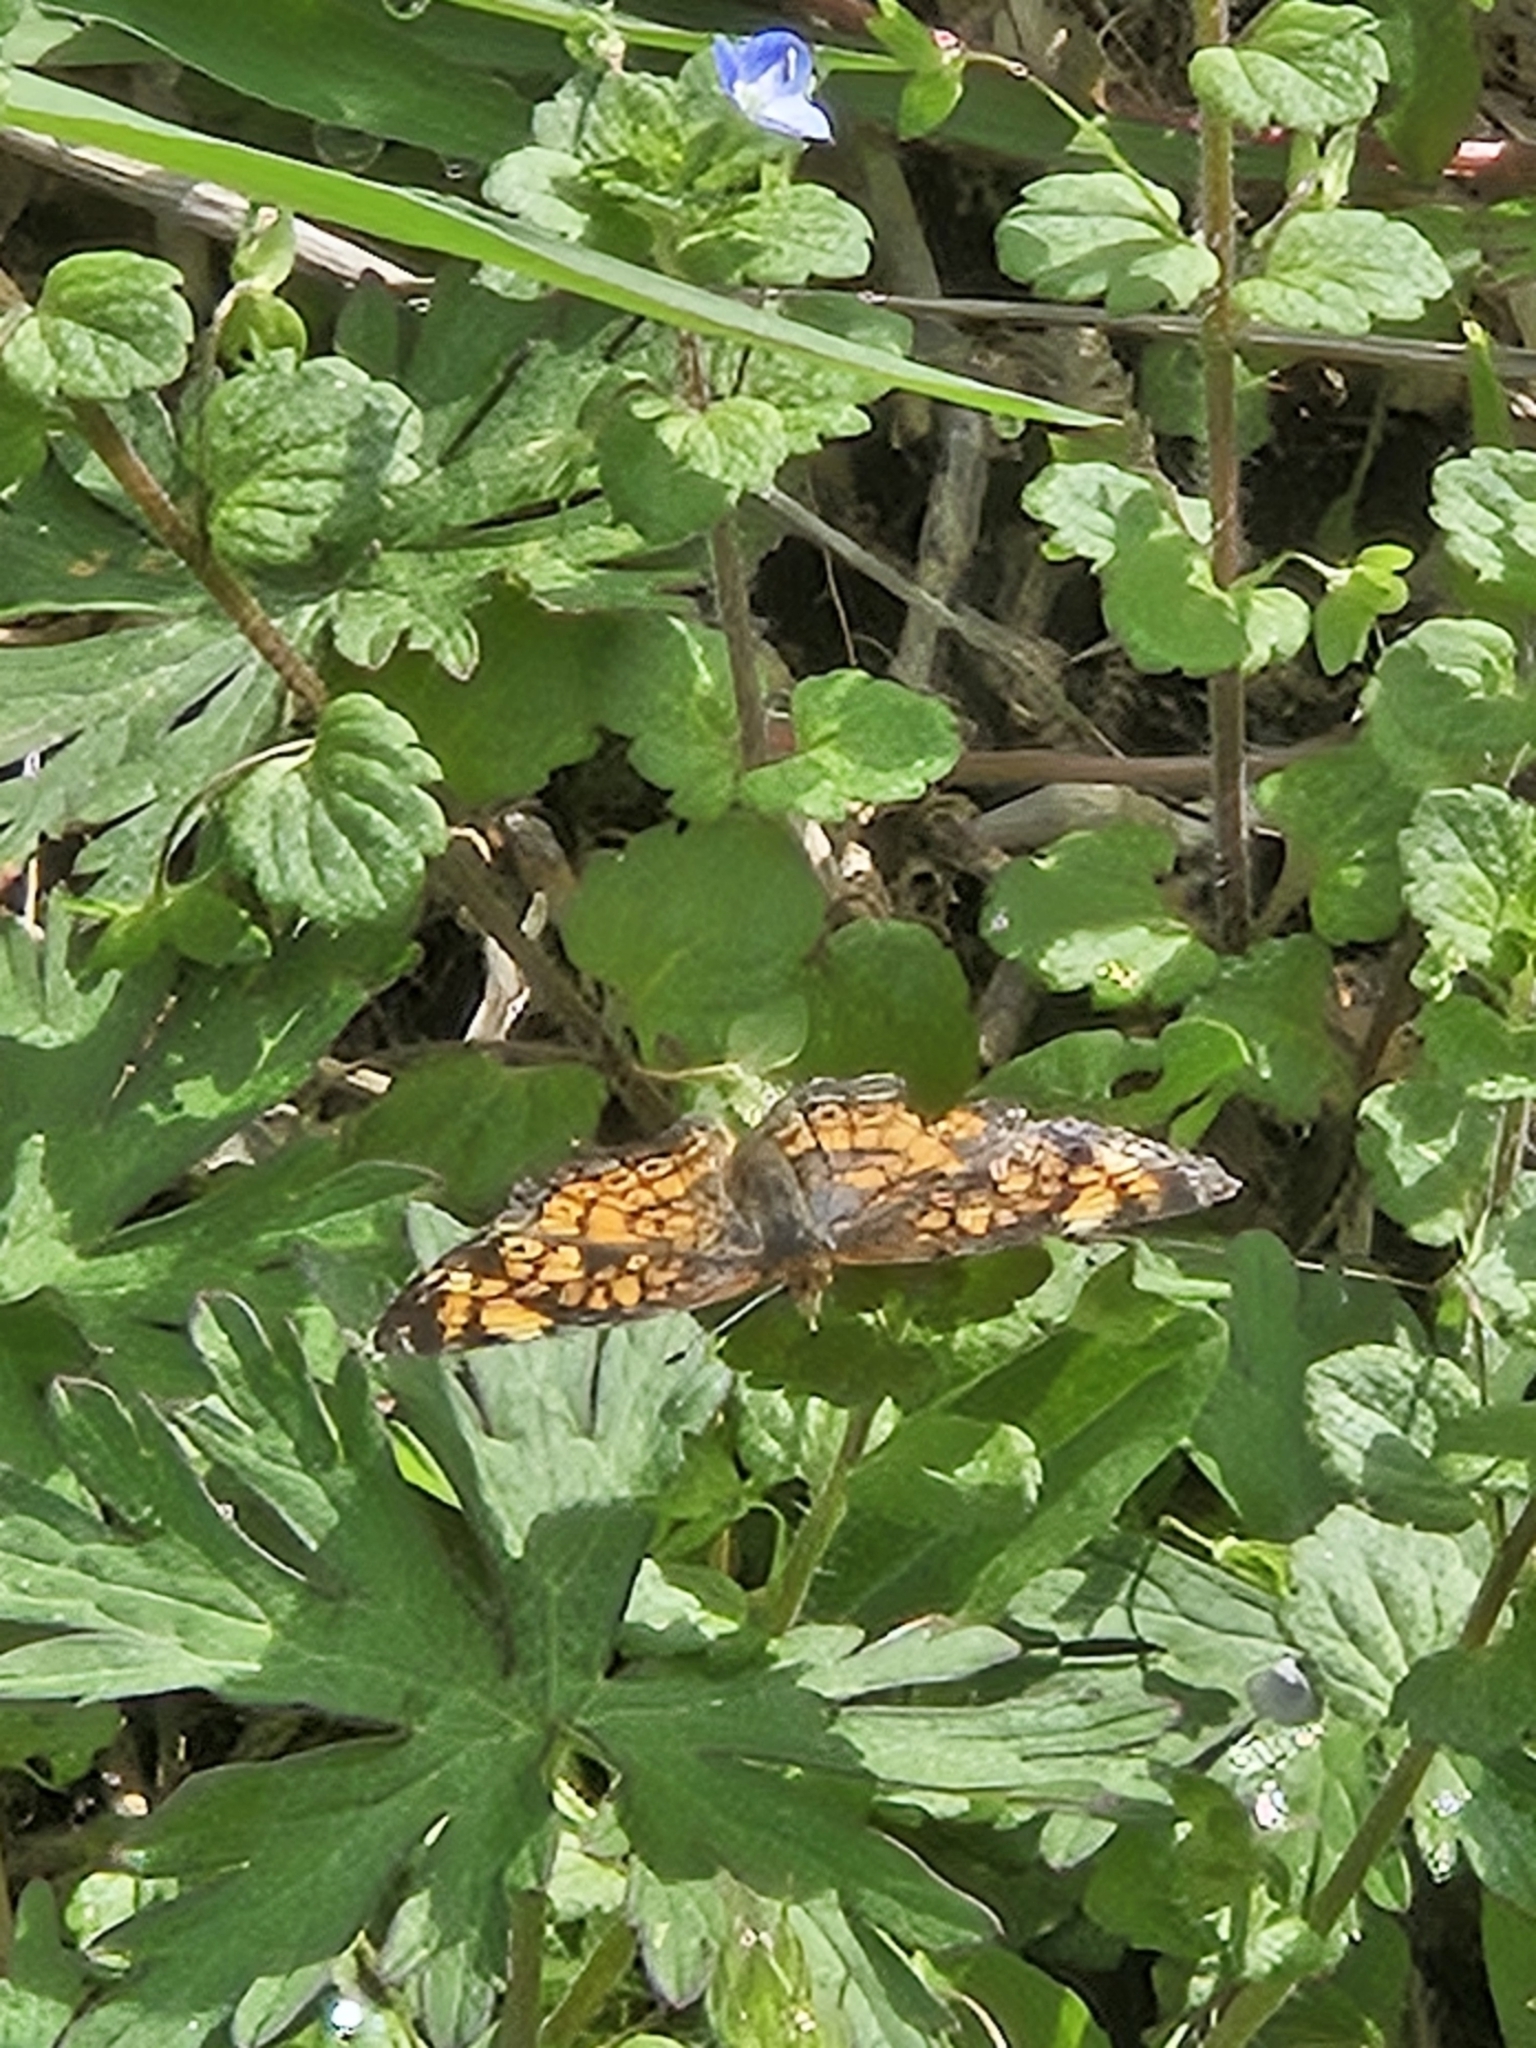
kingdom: Animalia
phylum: Arthropoda
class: Insecta
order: Lepidoptera
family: Nymphalidae
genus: Phyciodes
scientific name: Phyciodes tharos
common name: Pearl crescent
